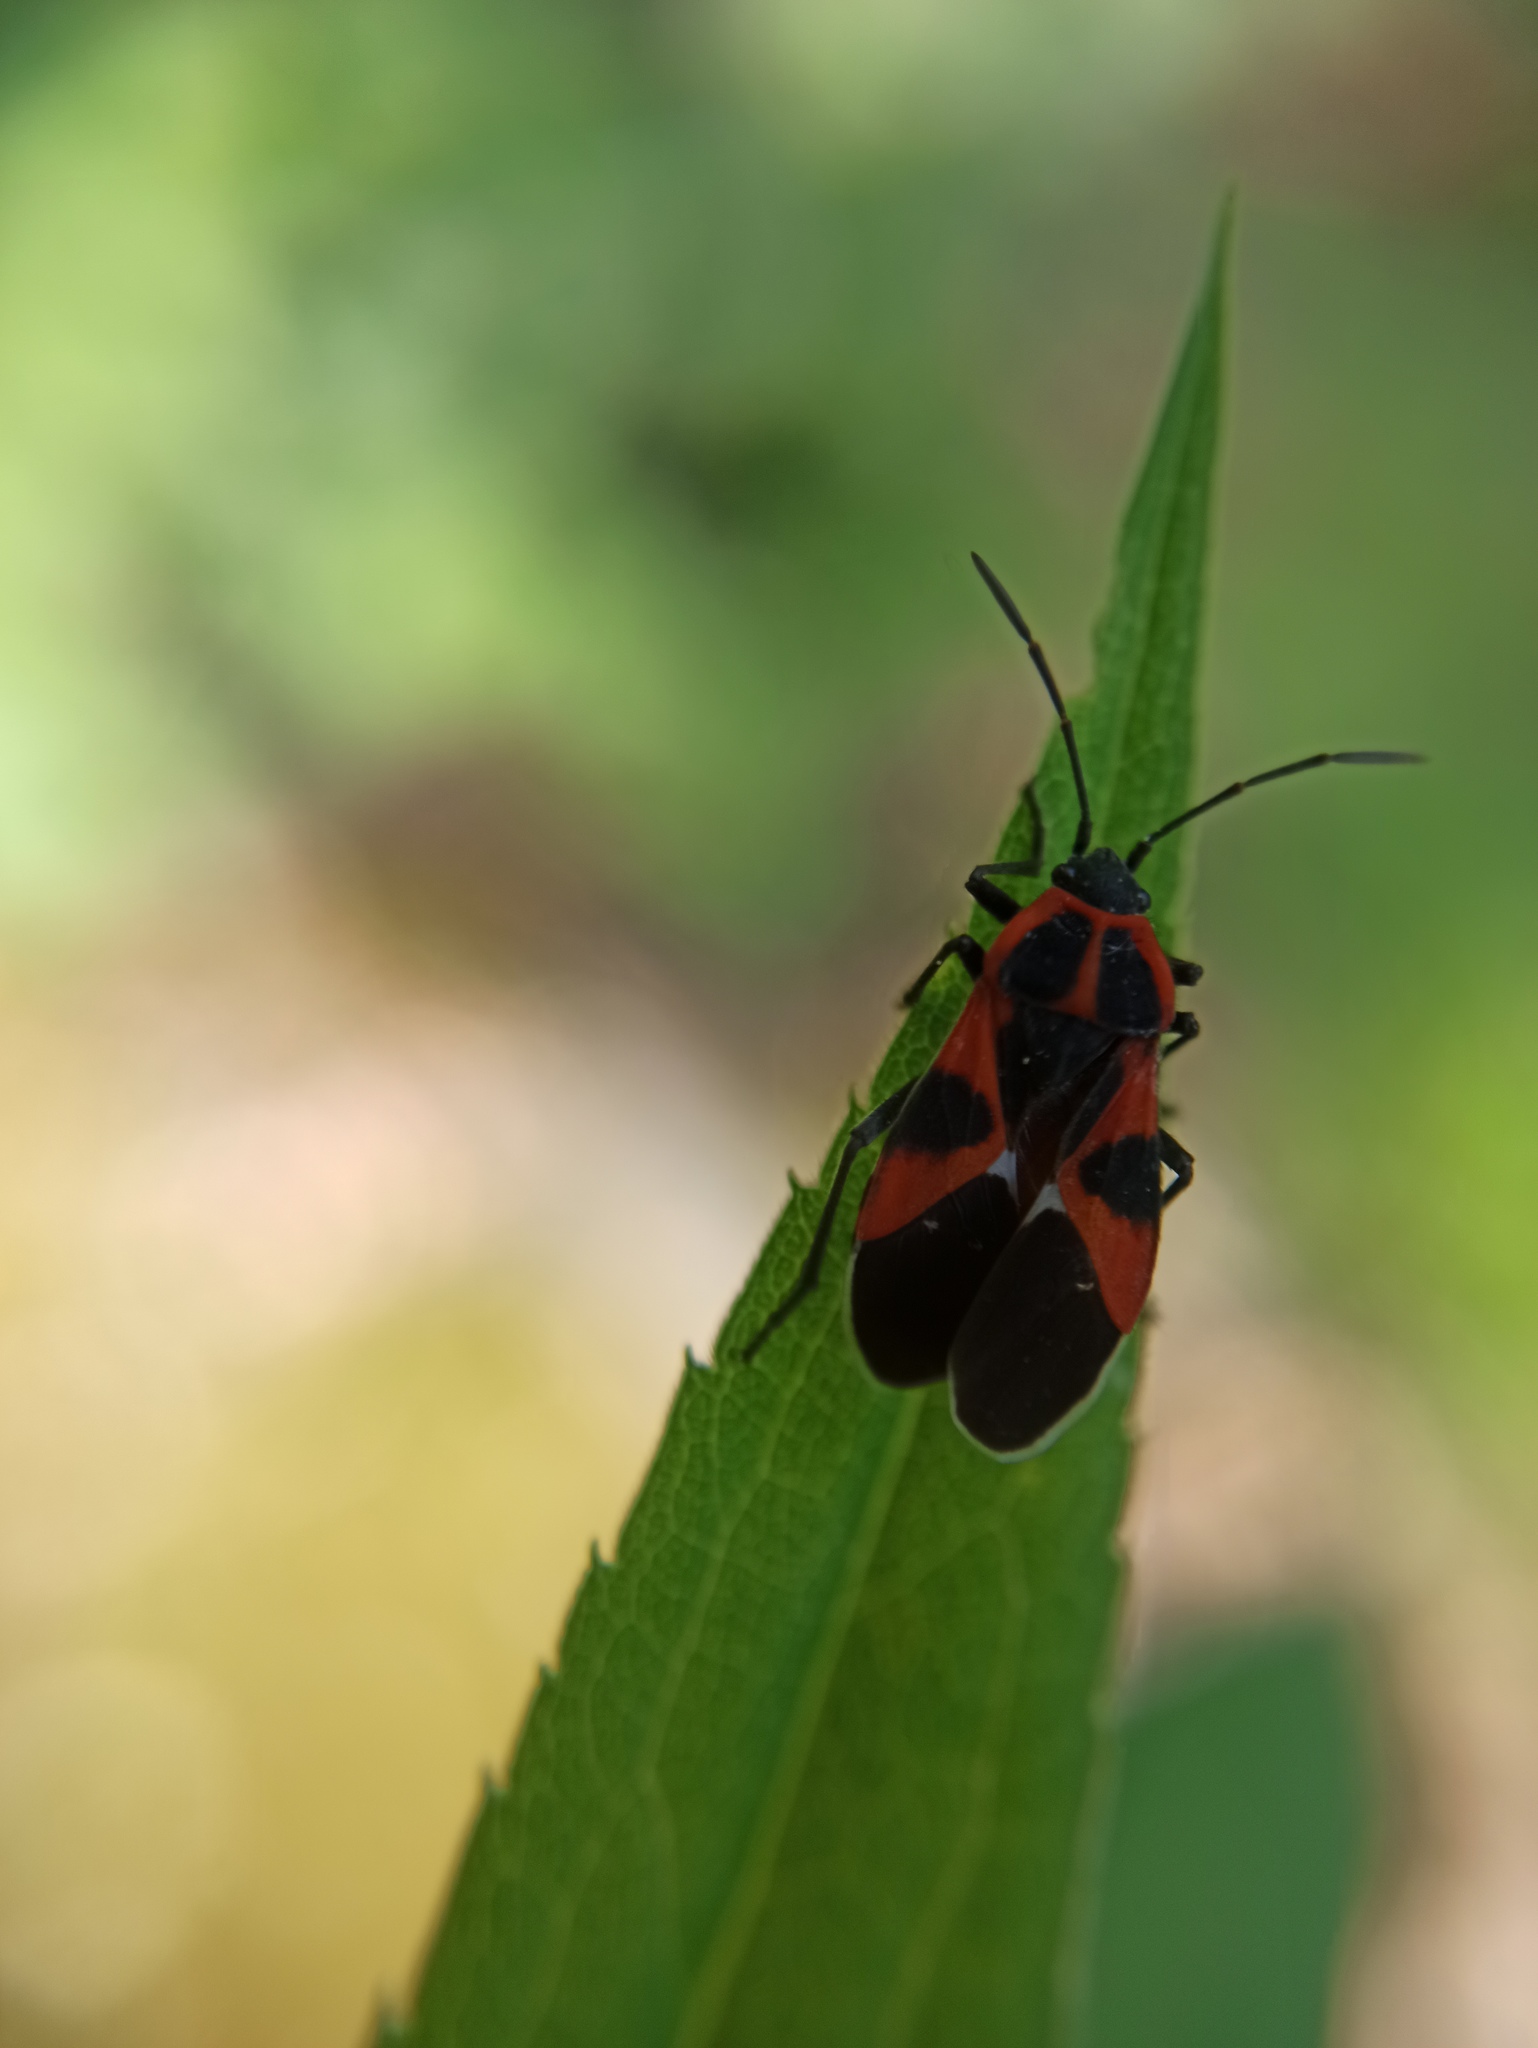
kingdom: Animalia
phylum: Arthropoda
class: Insecta
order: Hemiptera
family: Lygaeidae
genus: Tropidothorax
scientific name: Tropidothorax leucopterus
